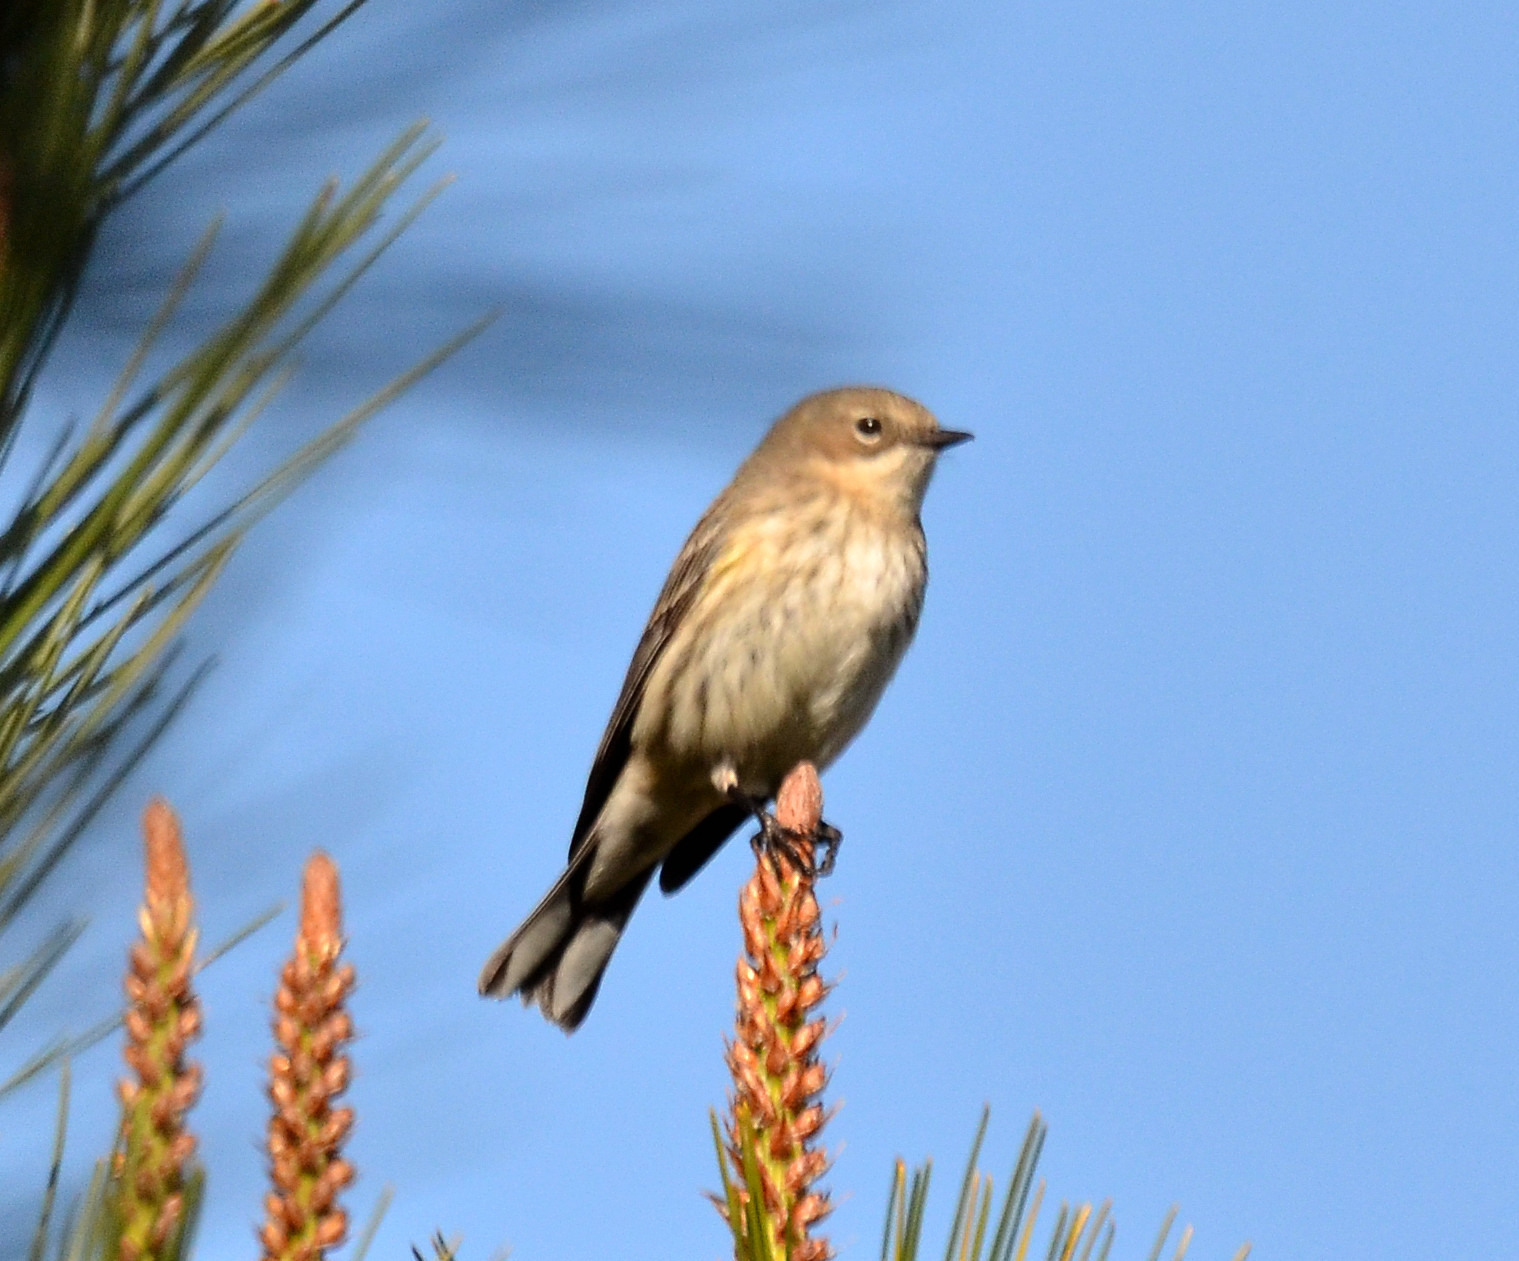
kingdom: Animalia
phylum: Chordata
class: Aves
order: Passeriformes
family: Parulidae
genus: Setophaga
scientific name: Setophaga coronata
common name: Myrtle warbler
